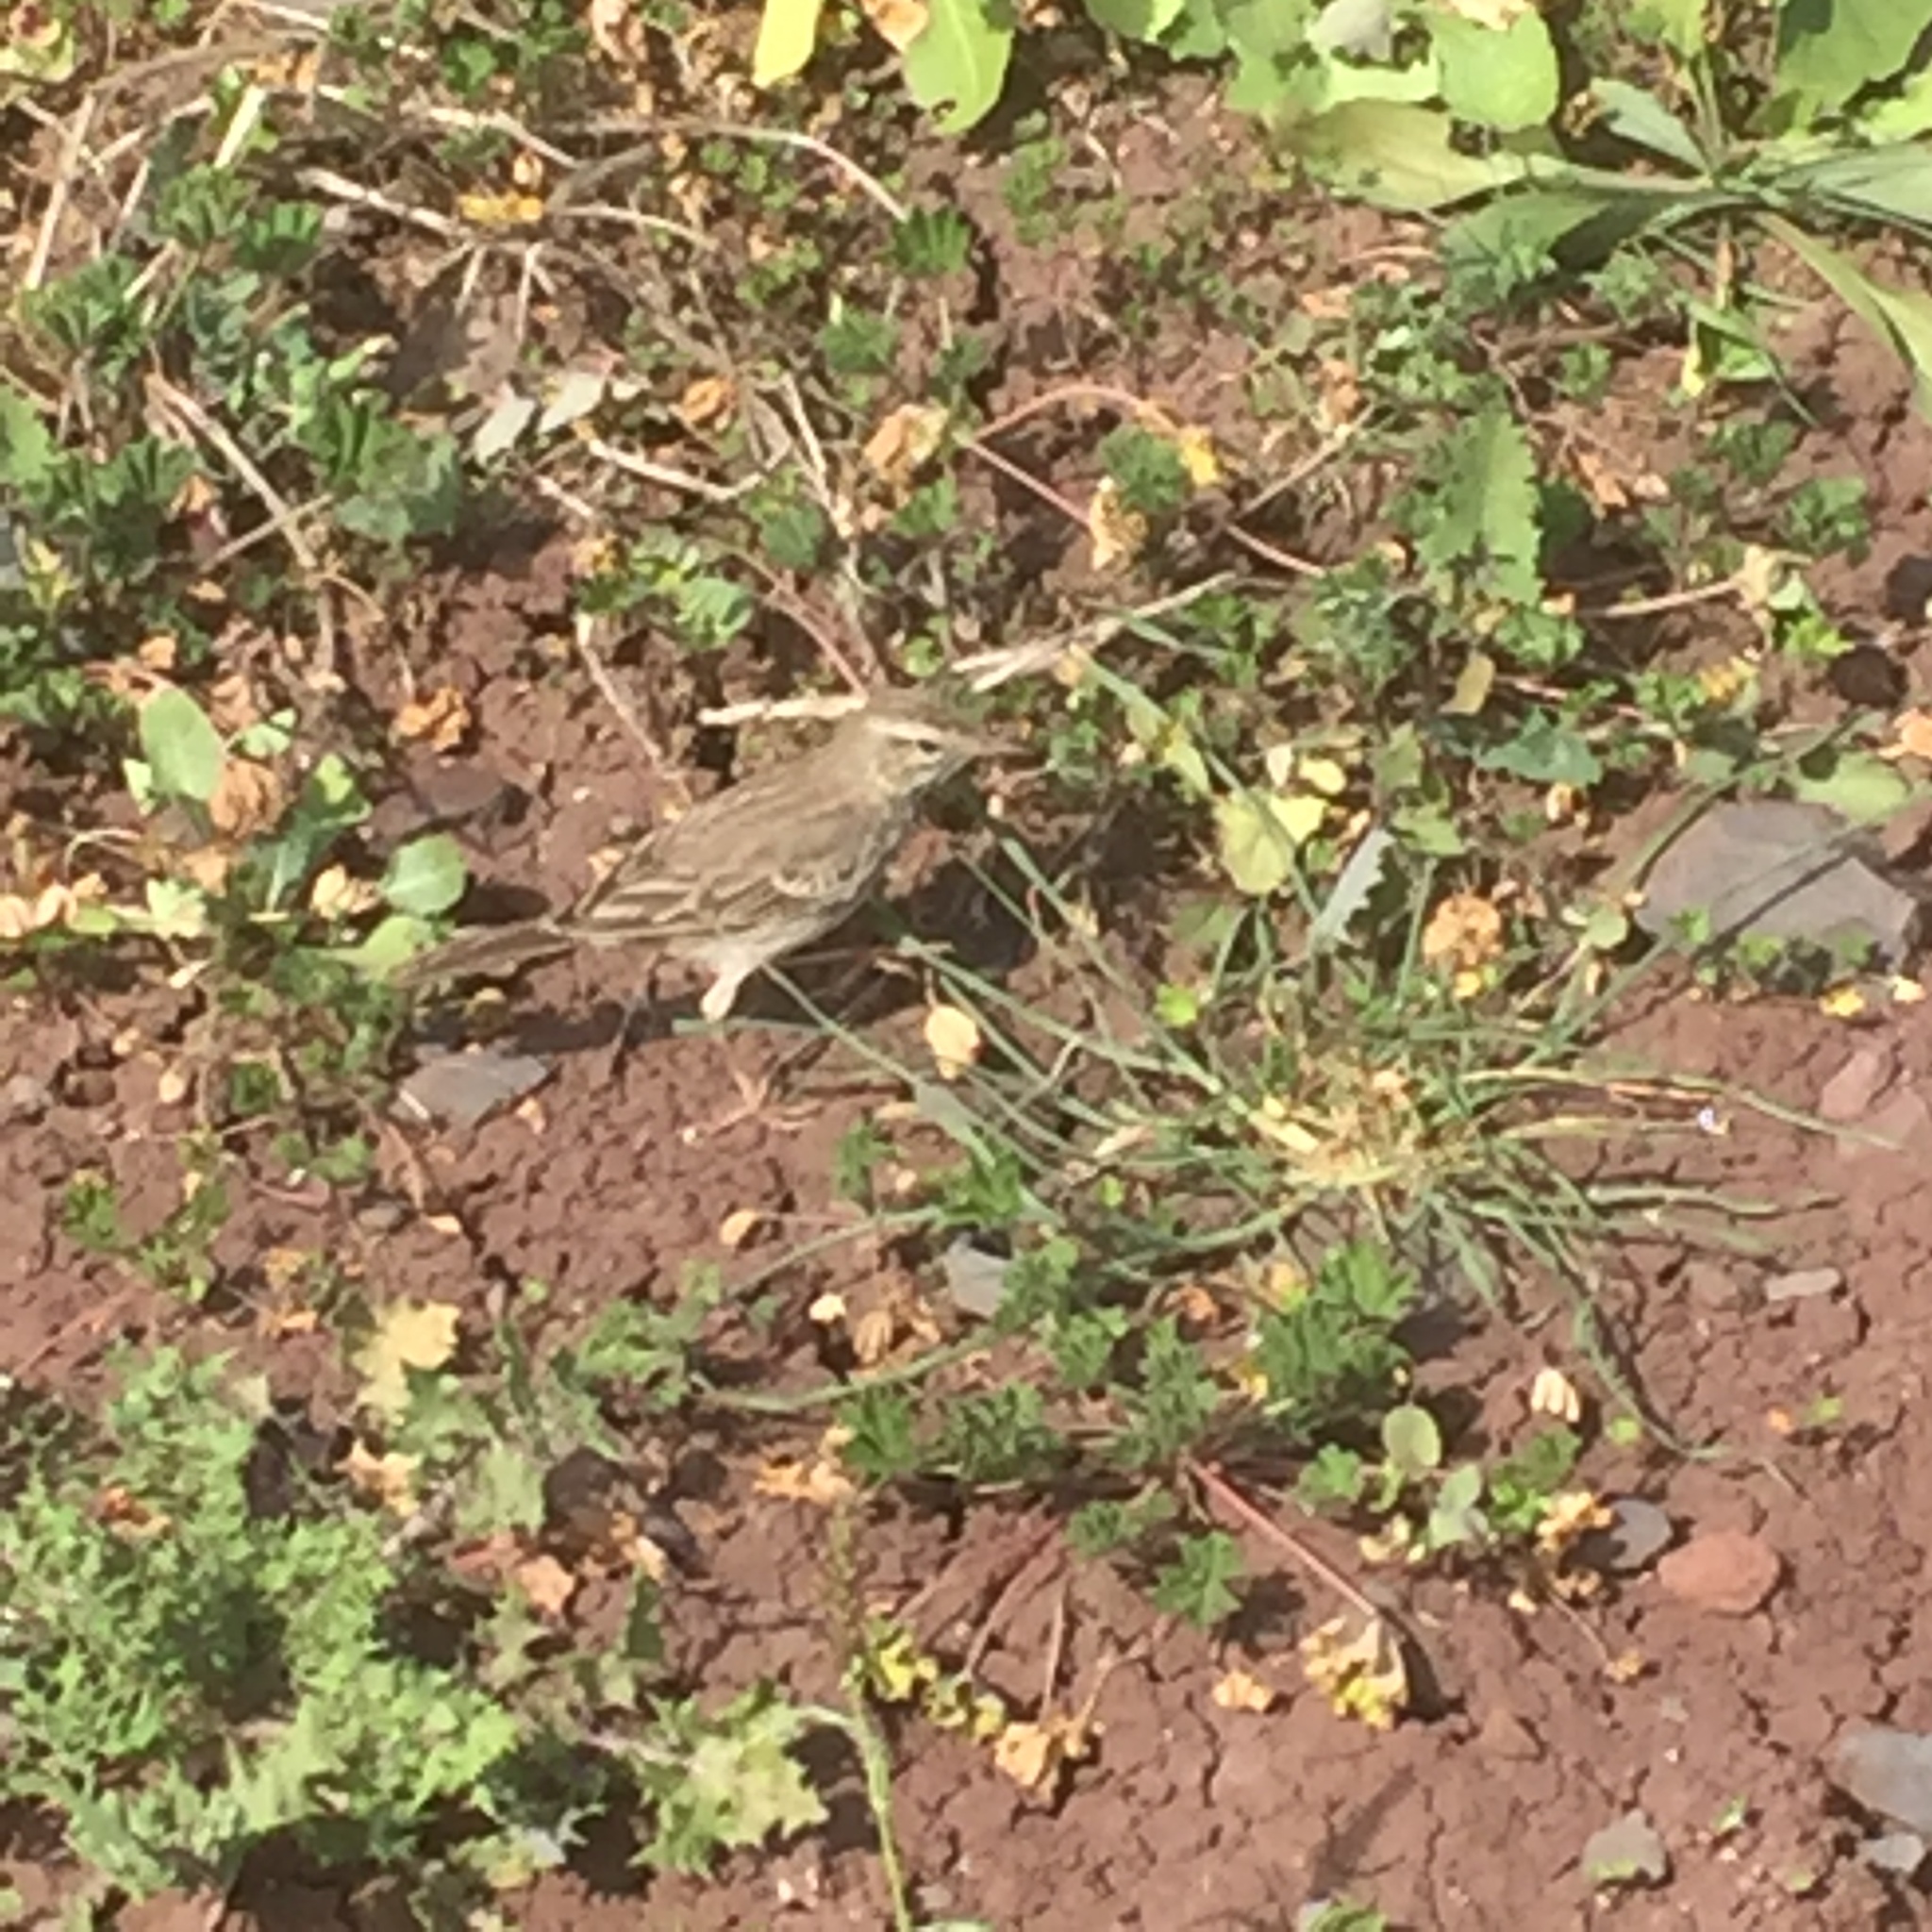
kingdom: Animalia
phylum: Chordata
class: Aves
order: Passeriformes
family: Motacillidae
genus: Anthus
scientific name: Anthus berthelotii
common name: Berthelot's pipit
